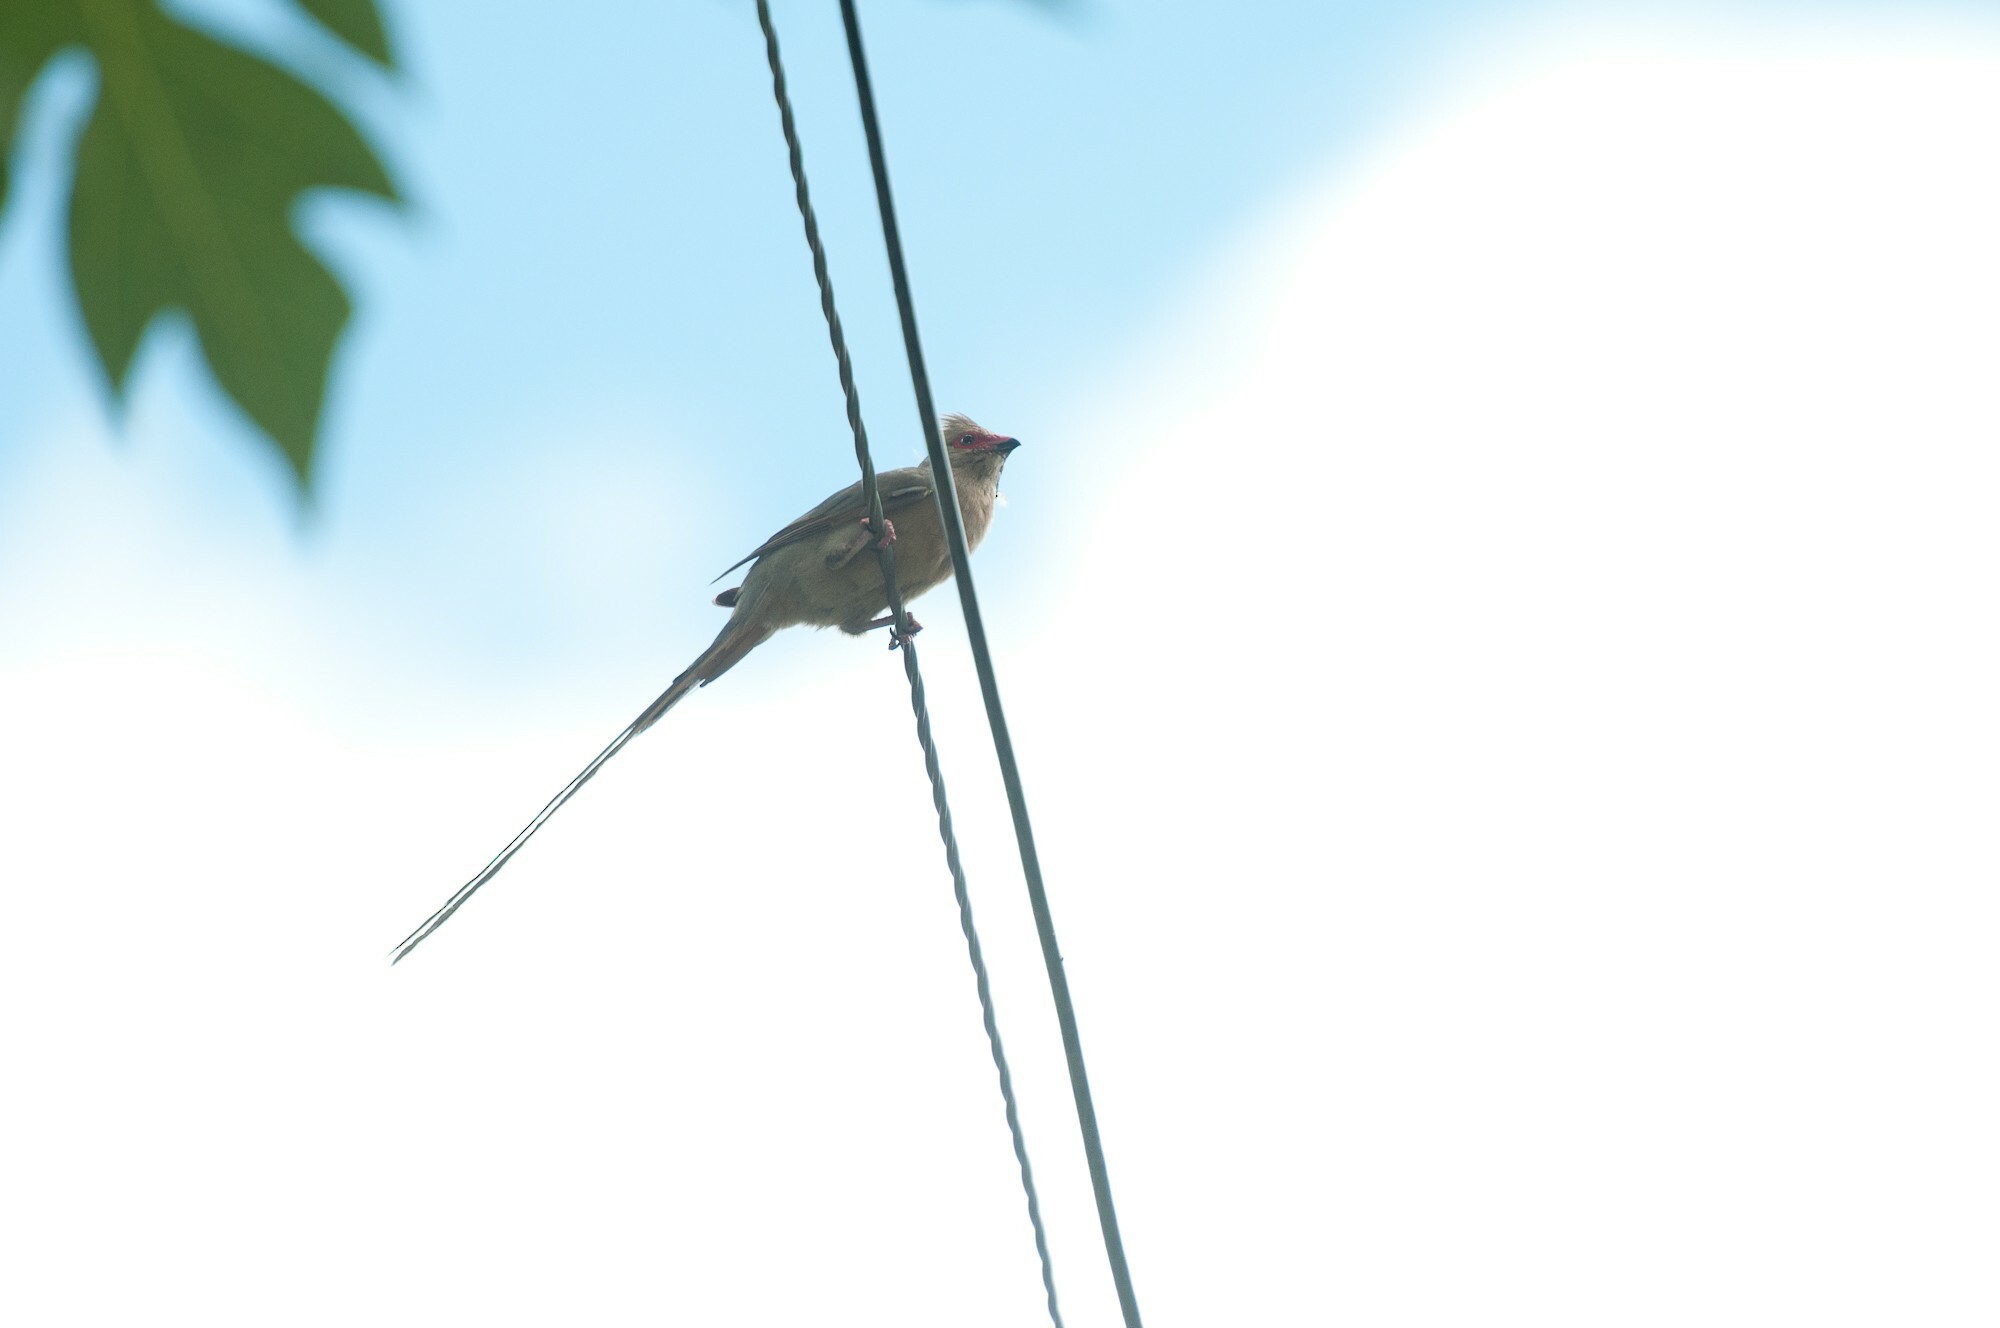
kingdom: Animalia
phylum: Chordata
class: Aves
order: Coliiformes
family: Coliidae
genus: Urocolius
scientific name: Urocolius indicus
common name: Red-faced mousebird
